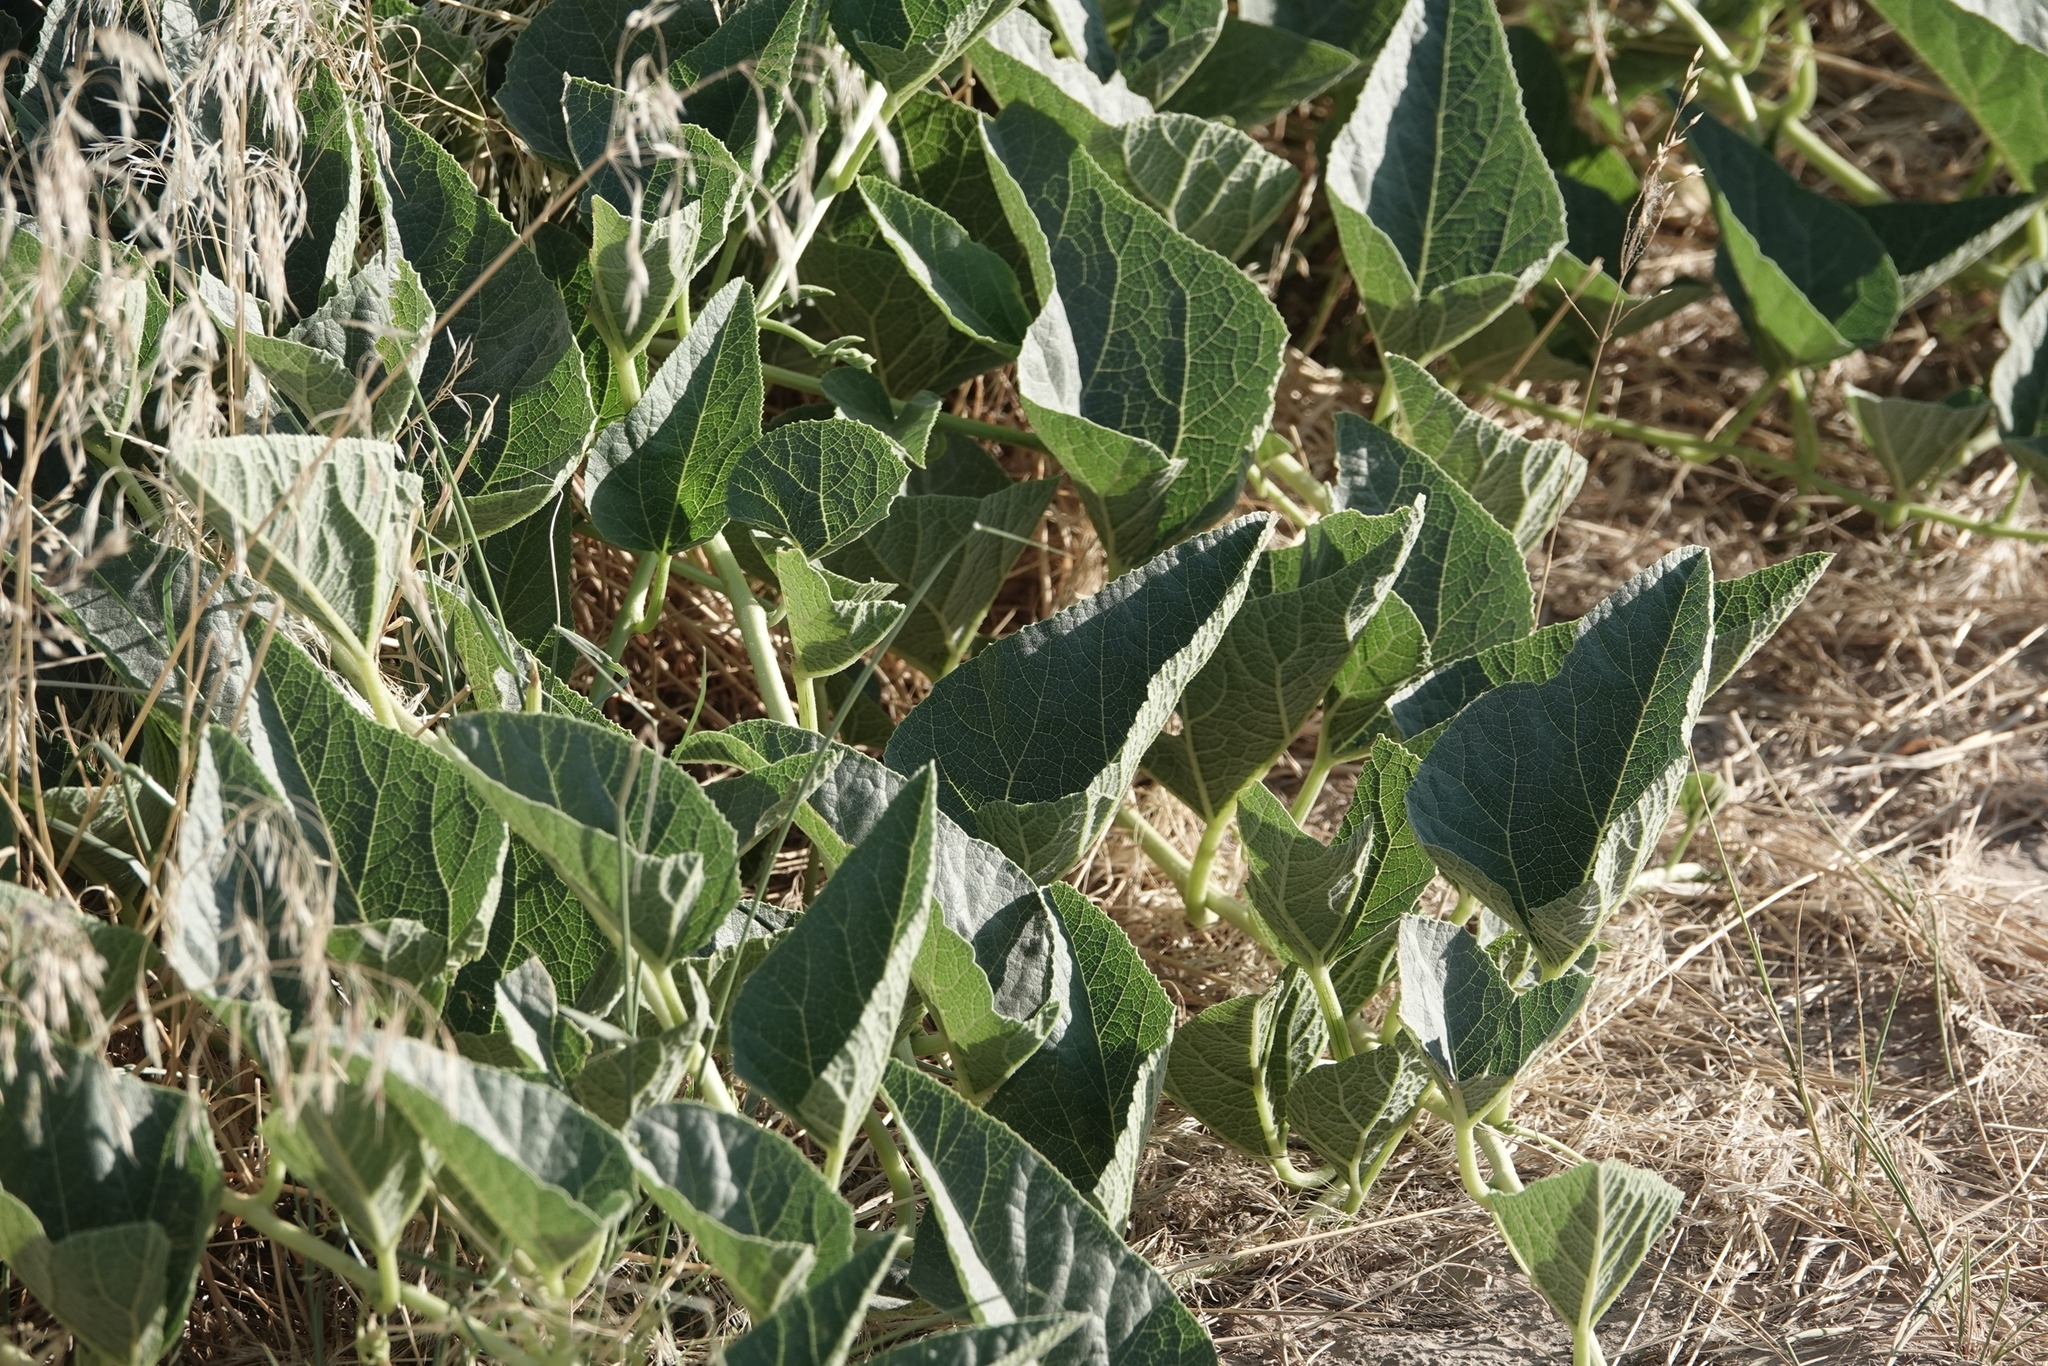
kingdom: Plantae
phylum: Tracheophyta
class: Magnoliopsida
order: Cucurbitales
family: Cucurbitaceae
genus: Cucurbita
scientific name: Cucurbita foetidissima
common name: Buffalo gourd
